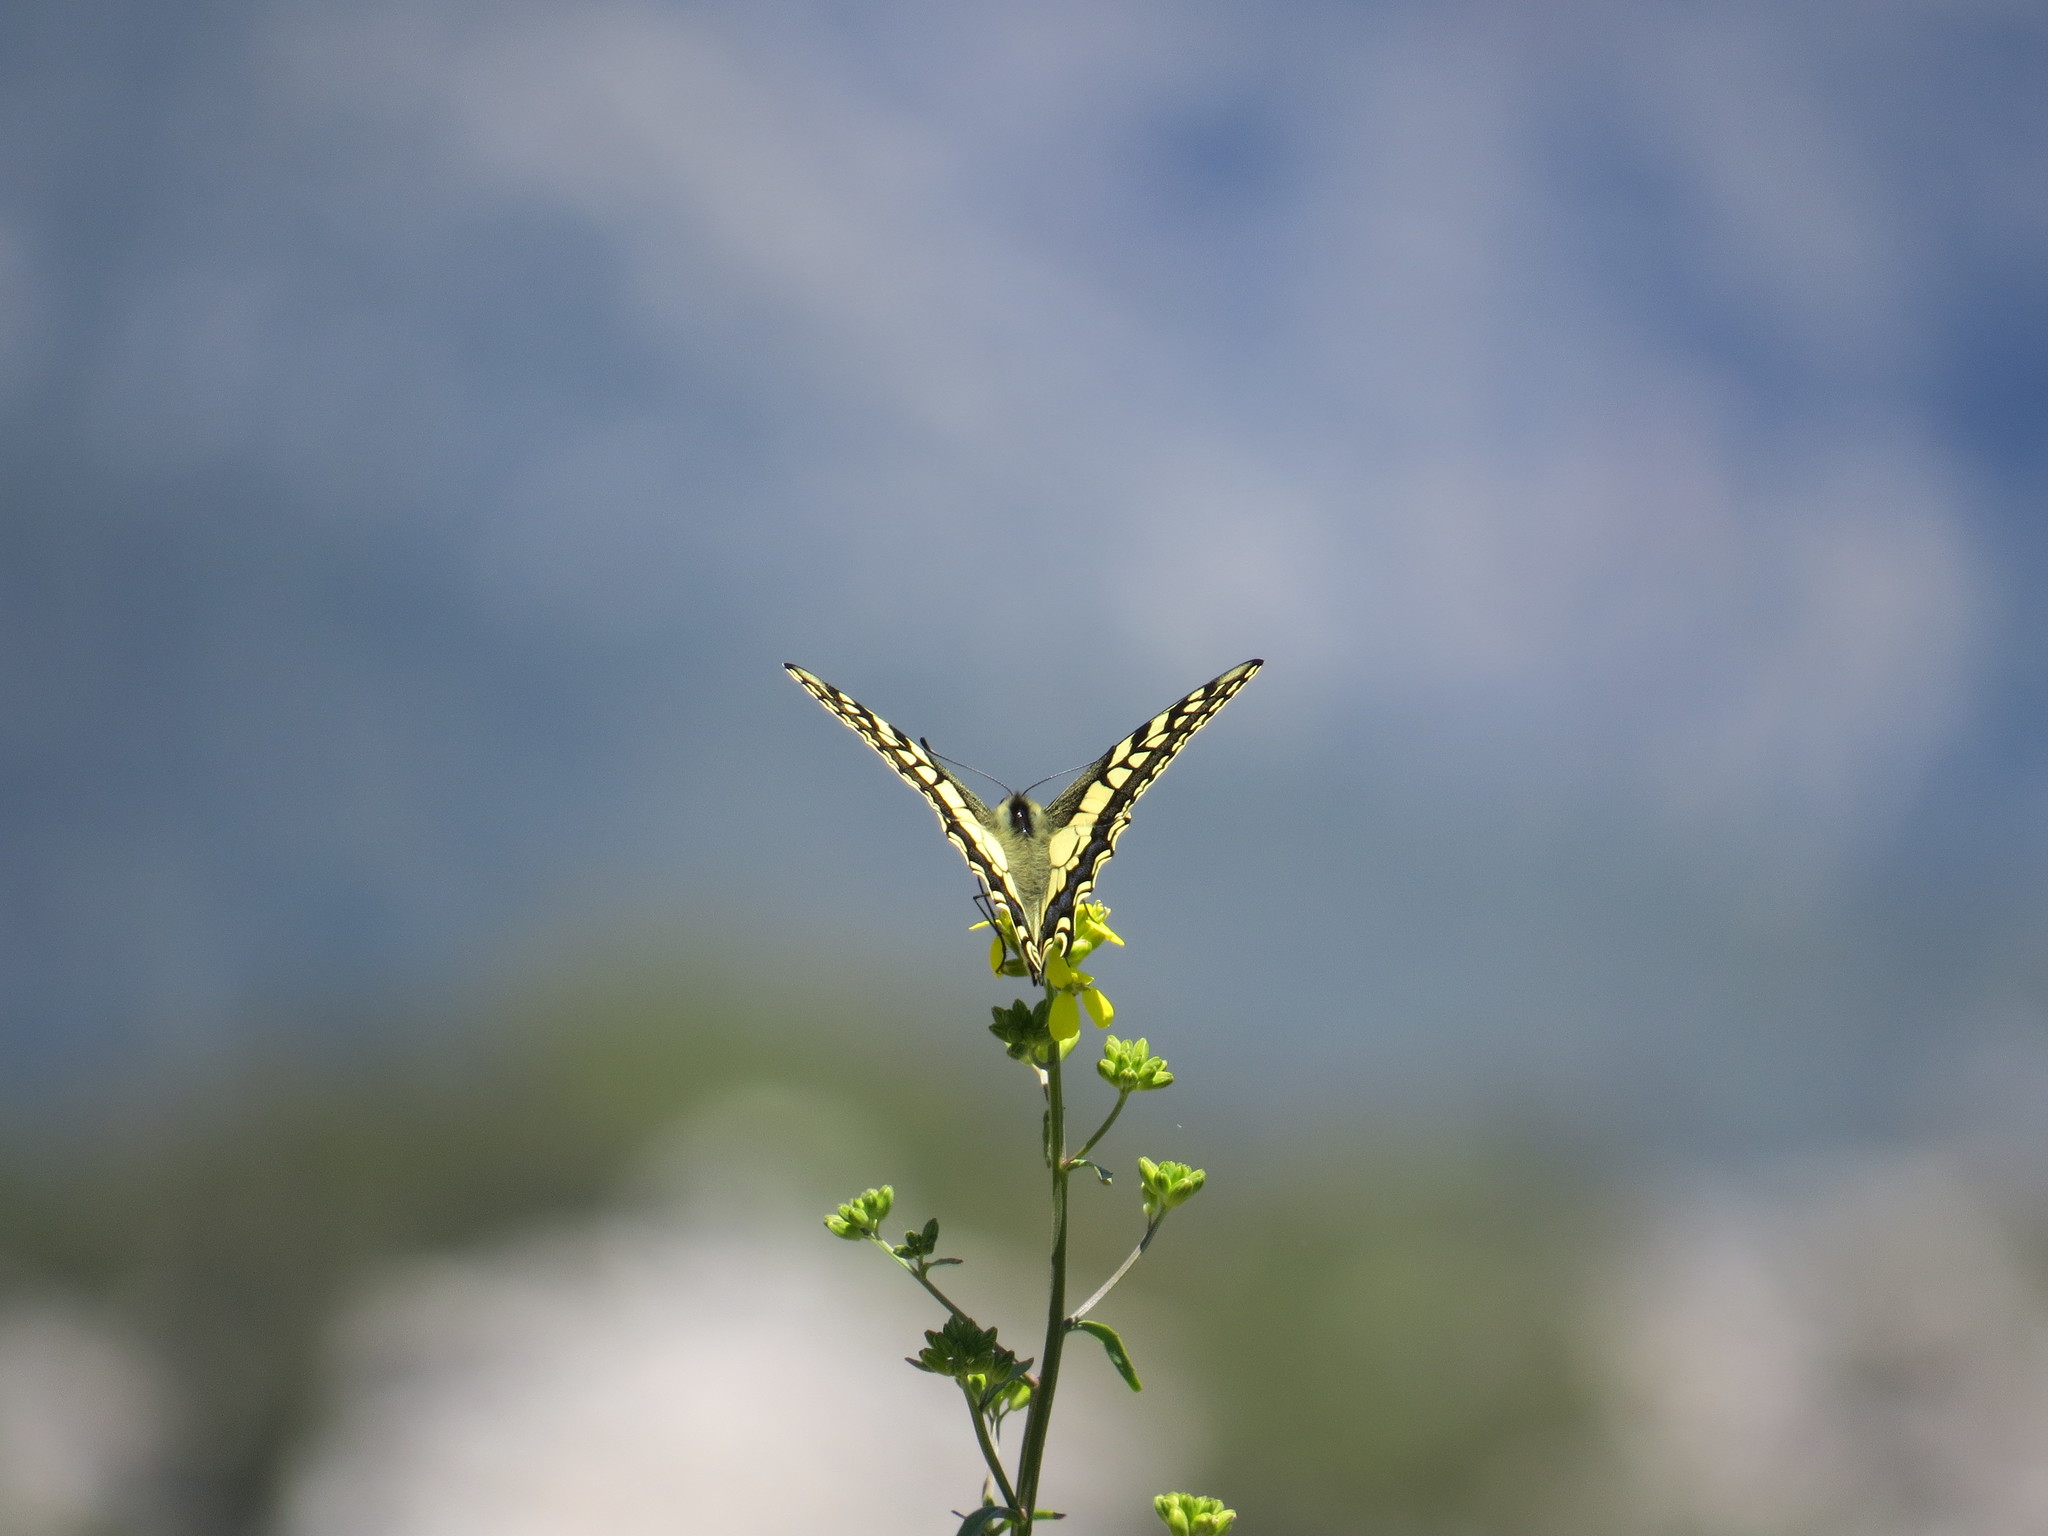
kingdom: Animalia
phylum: Arthropoda
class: Insecta
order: Lepidoptera
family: Papilionidae
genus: Papilio
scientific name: Papilio machaon
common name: Swallowtail
